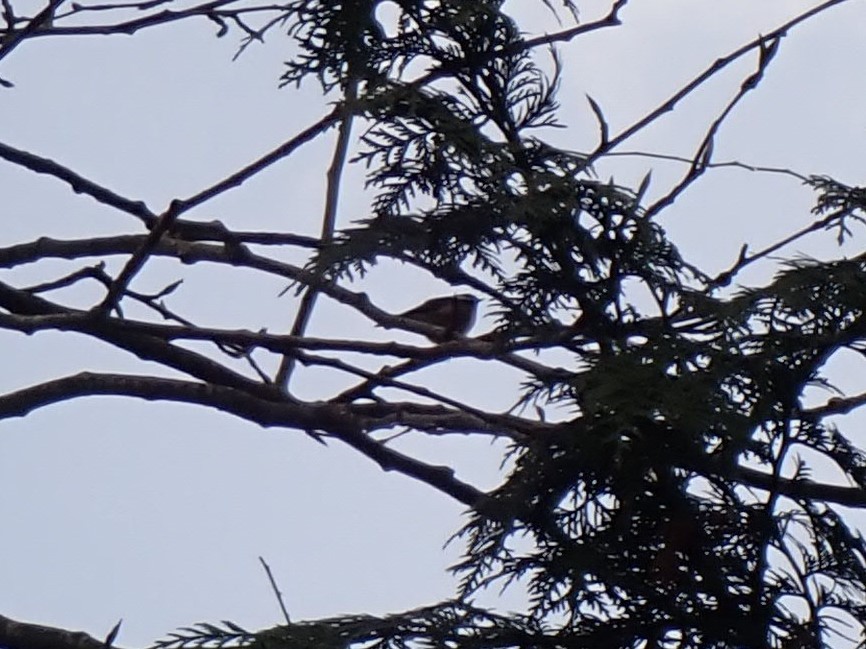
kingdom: Animalia
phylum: Chordata
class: Aves
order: Passeriformes
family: Troglodytidae
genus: Thryomanes
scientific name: Thryomanes bewickii
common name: Bewick's wren
